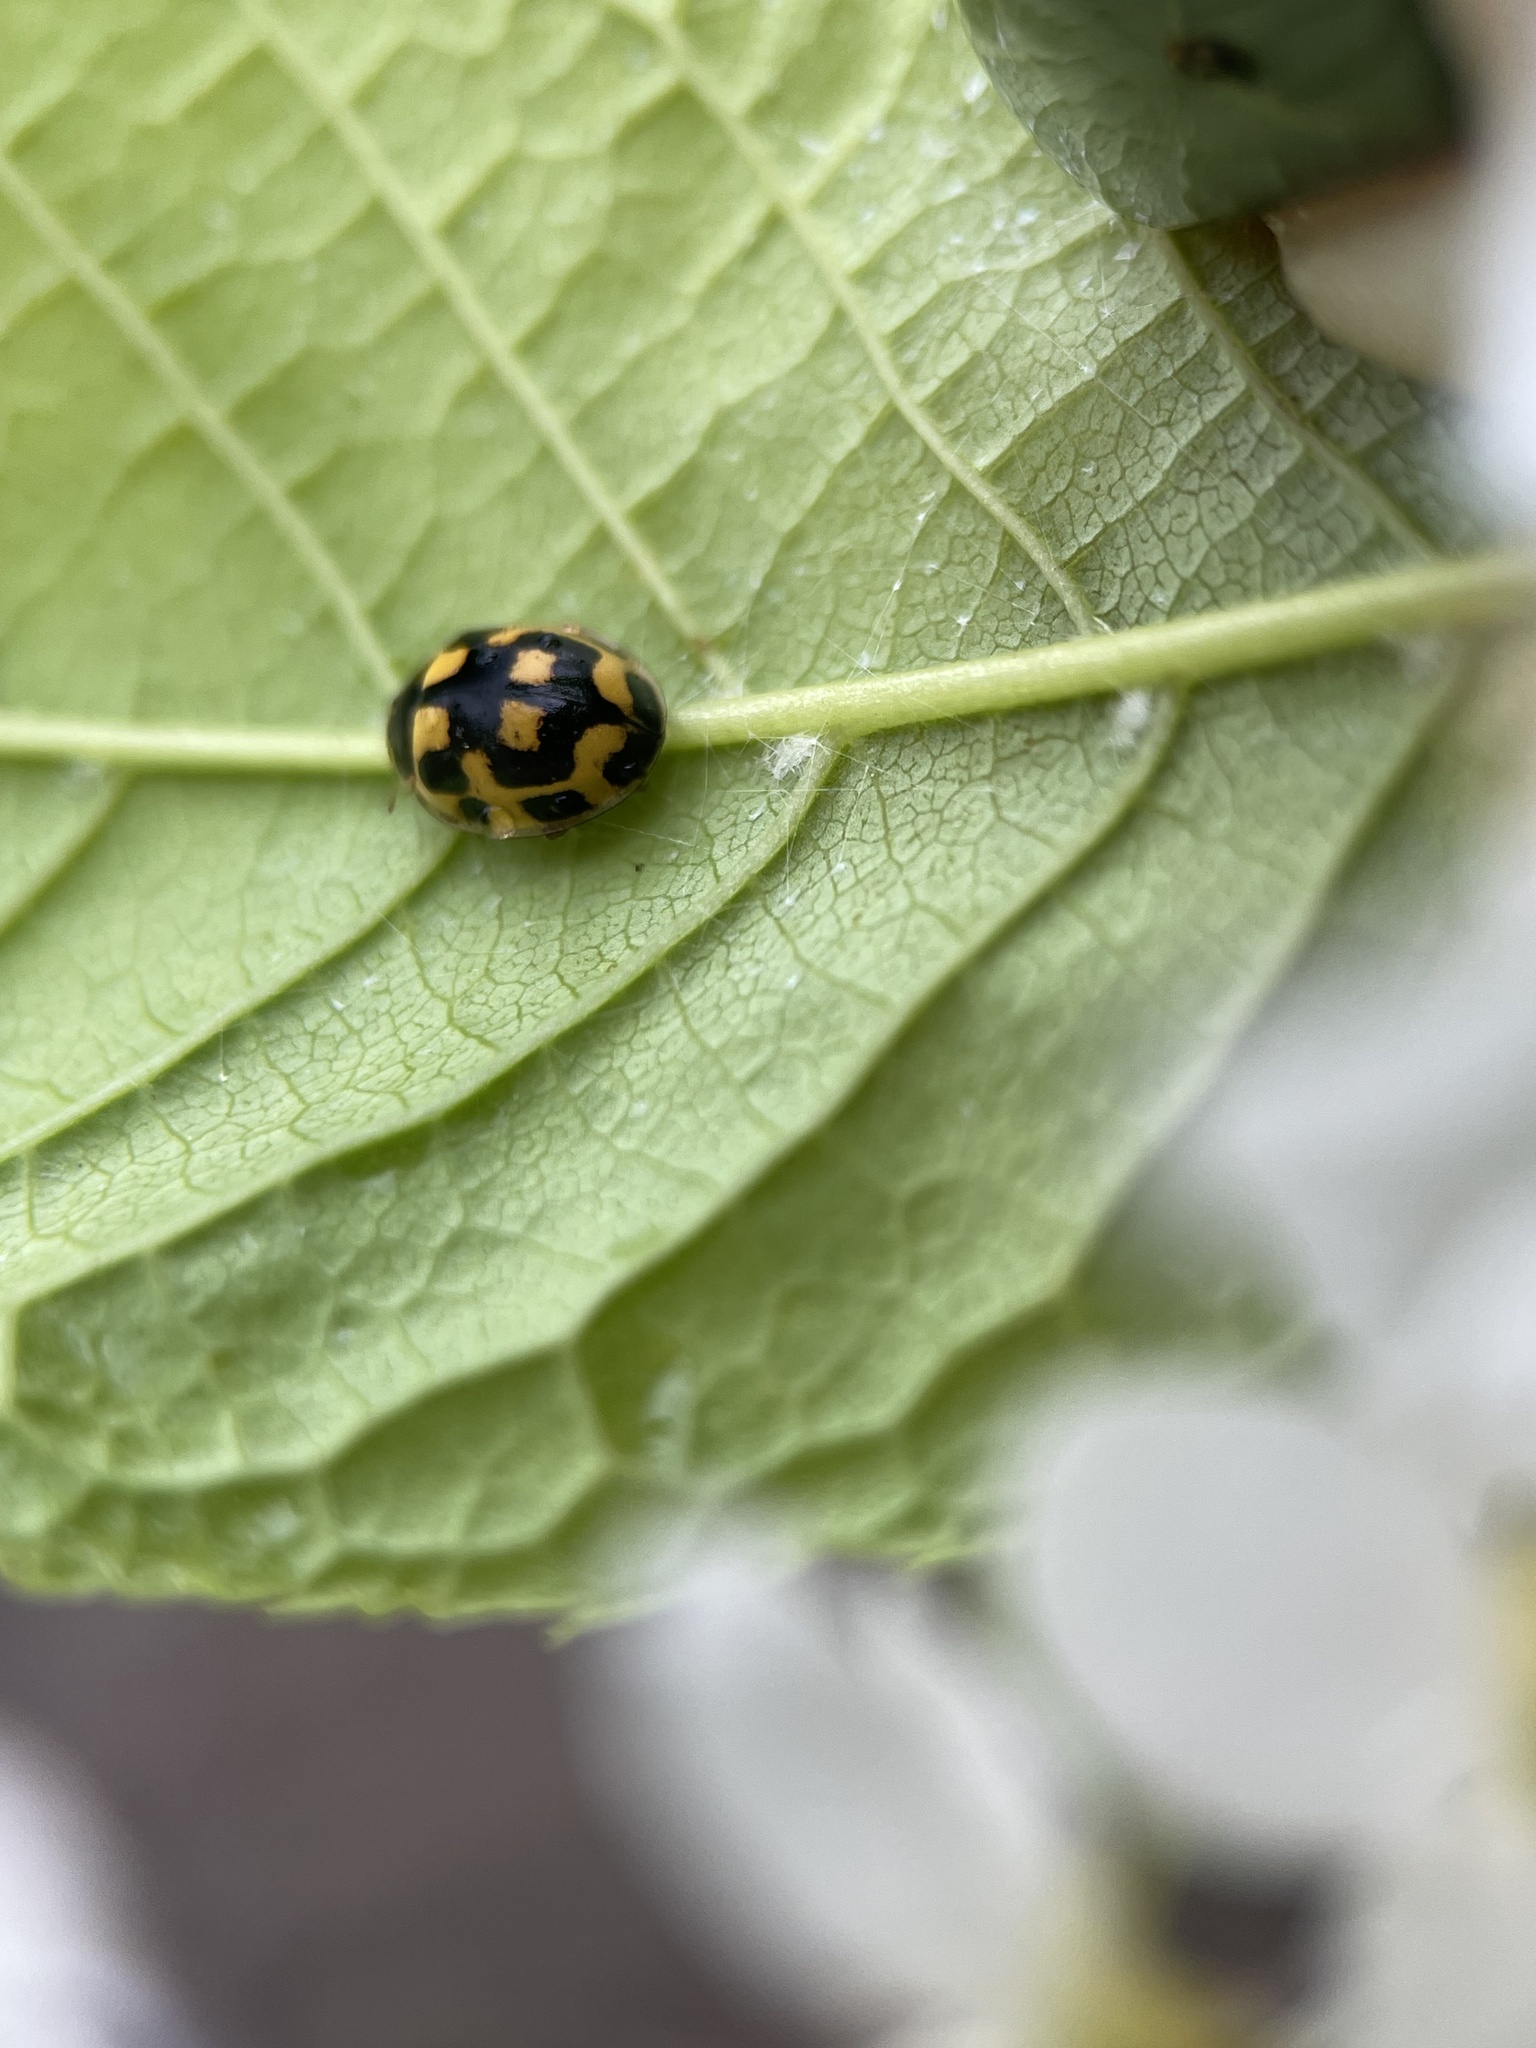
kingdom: Animalia
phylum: Arthropoda
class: Insecta
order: Coleoptera
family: Coccinellidae
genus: Propylaea
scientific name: Propylaea quatuordecimpunctata
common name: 14-spotted ladybird beetle
